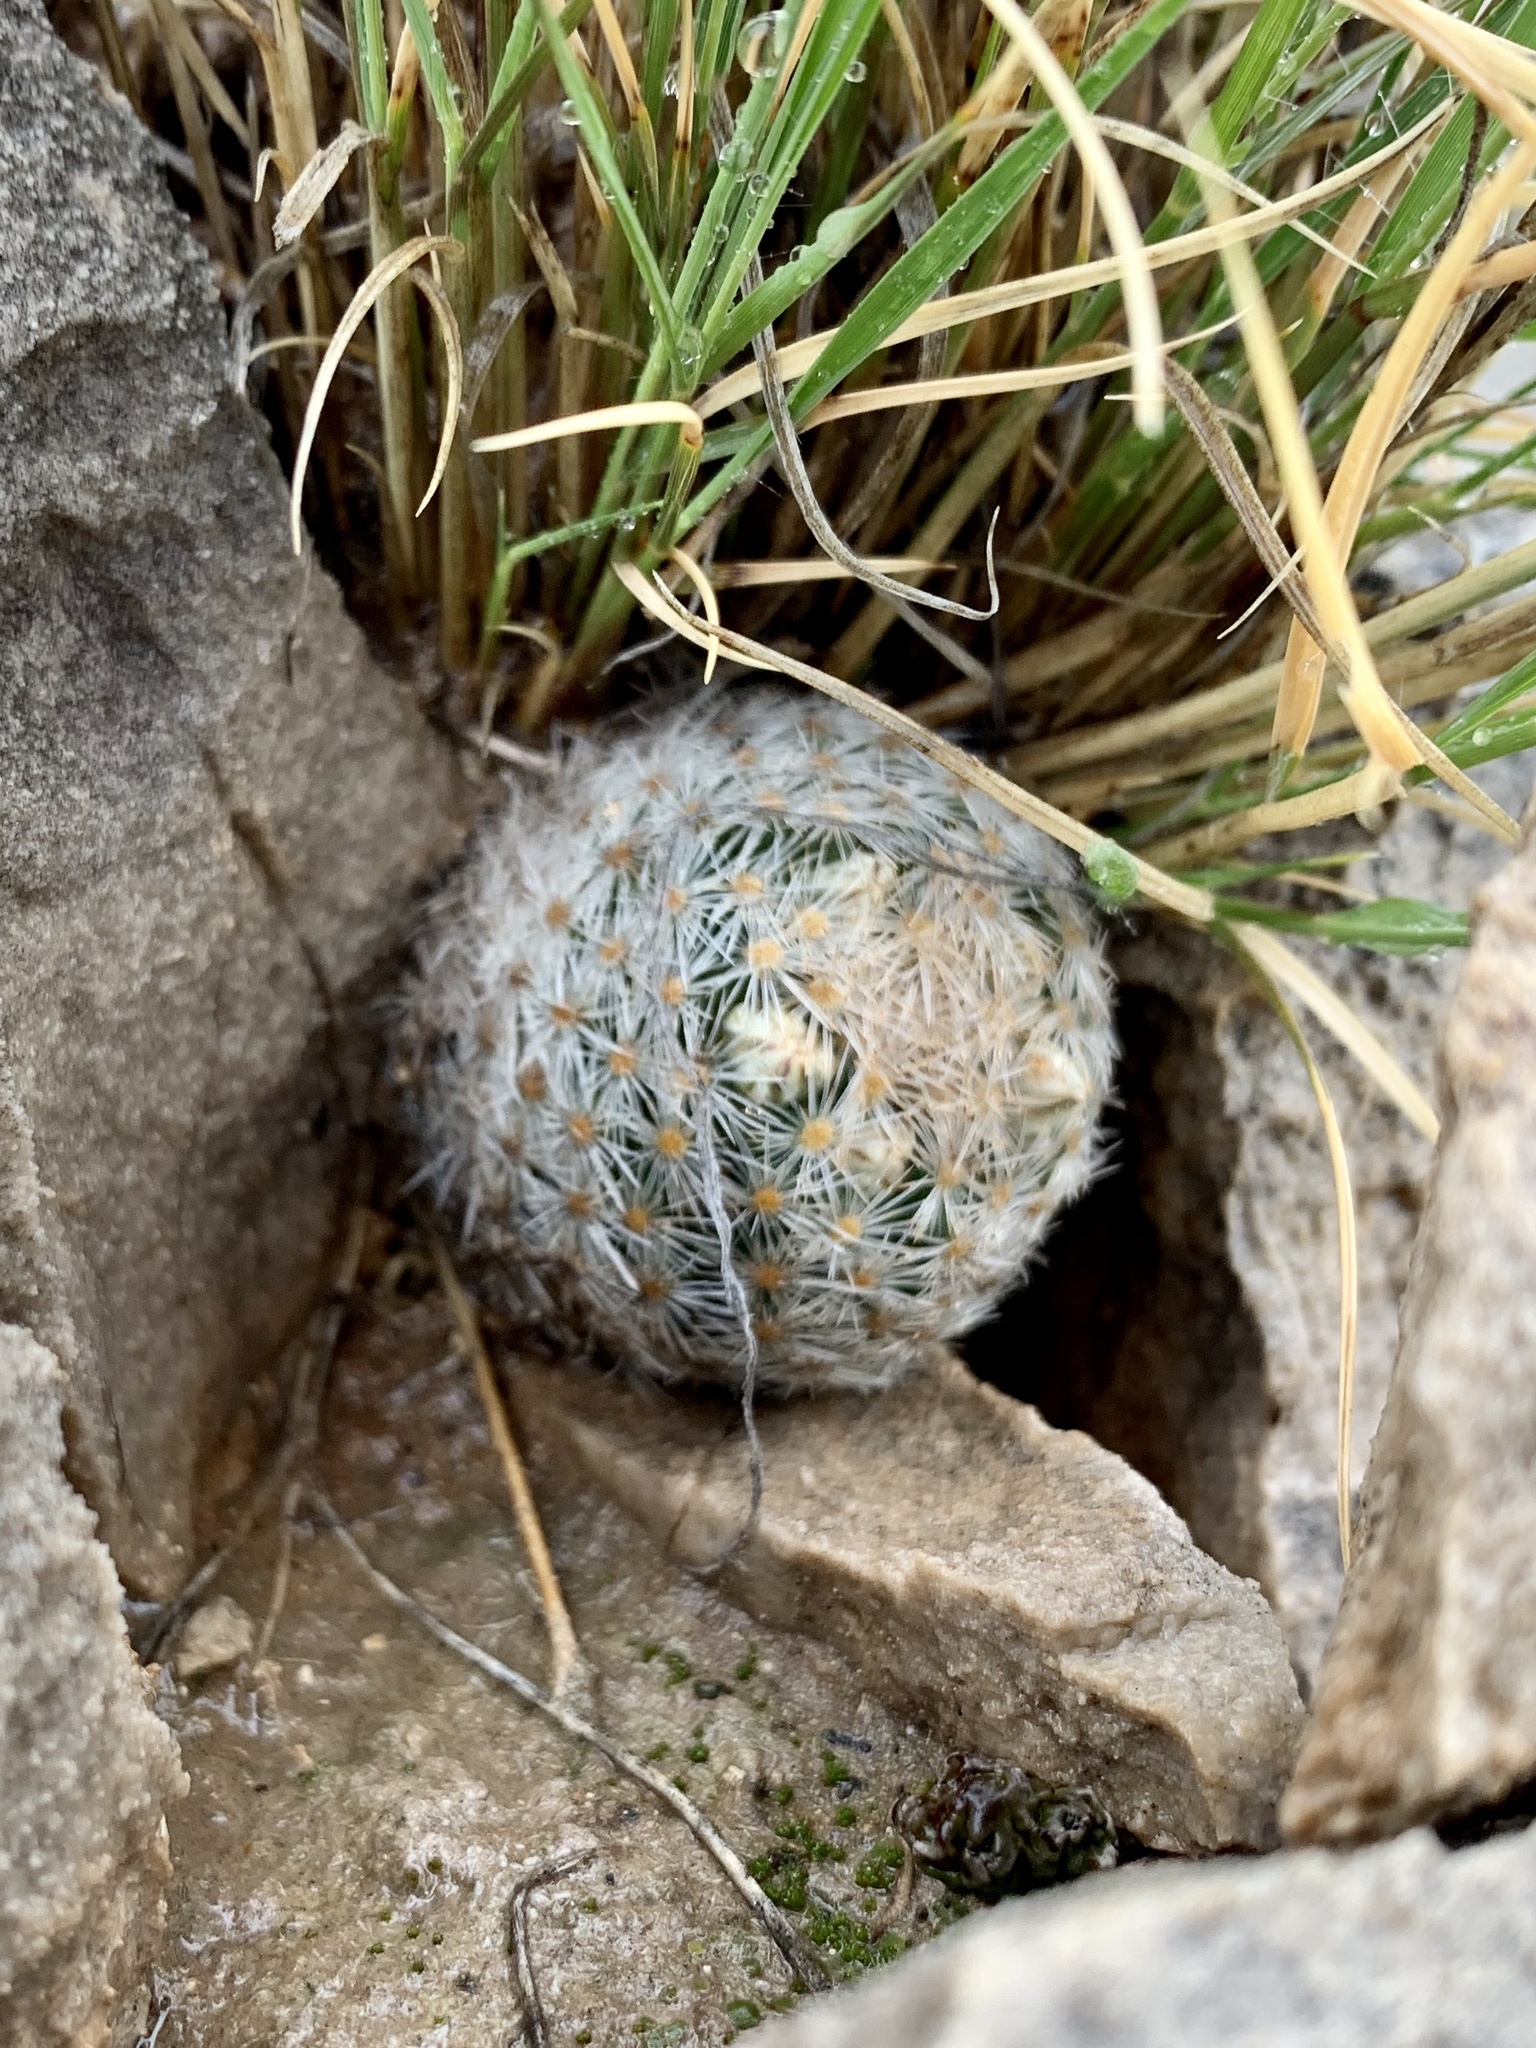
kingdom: Plantae
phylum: Tracheophyta
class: Magnoliopsida
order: Caryophyllales
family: Cactaceae
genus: Mammillaria
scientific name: Mammillaria lasiacantha
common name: Lace-spine nipple cactus
